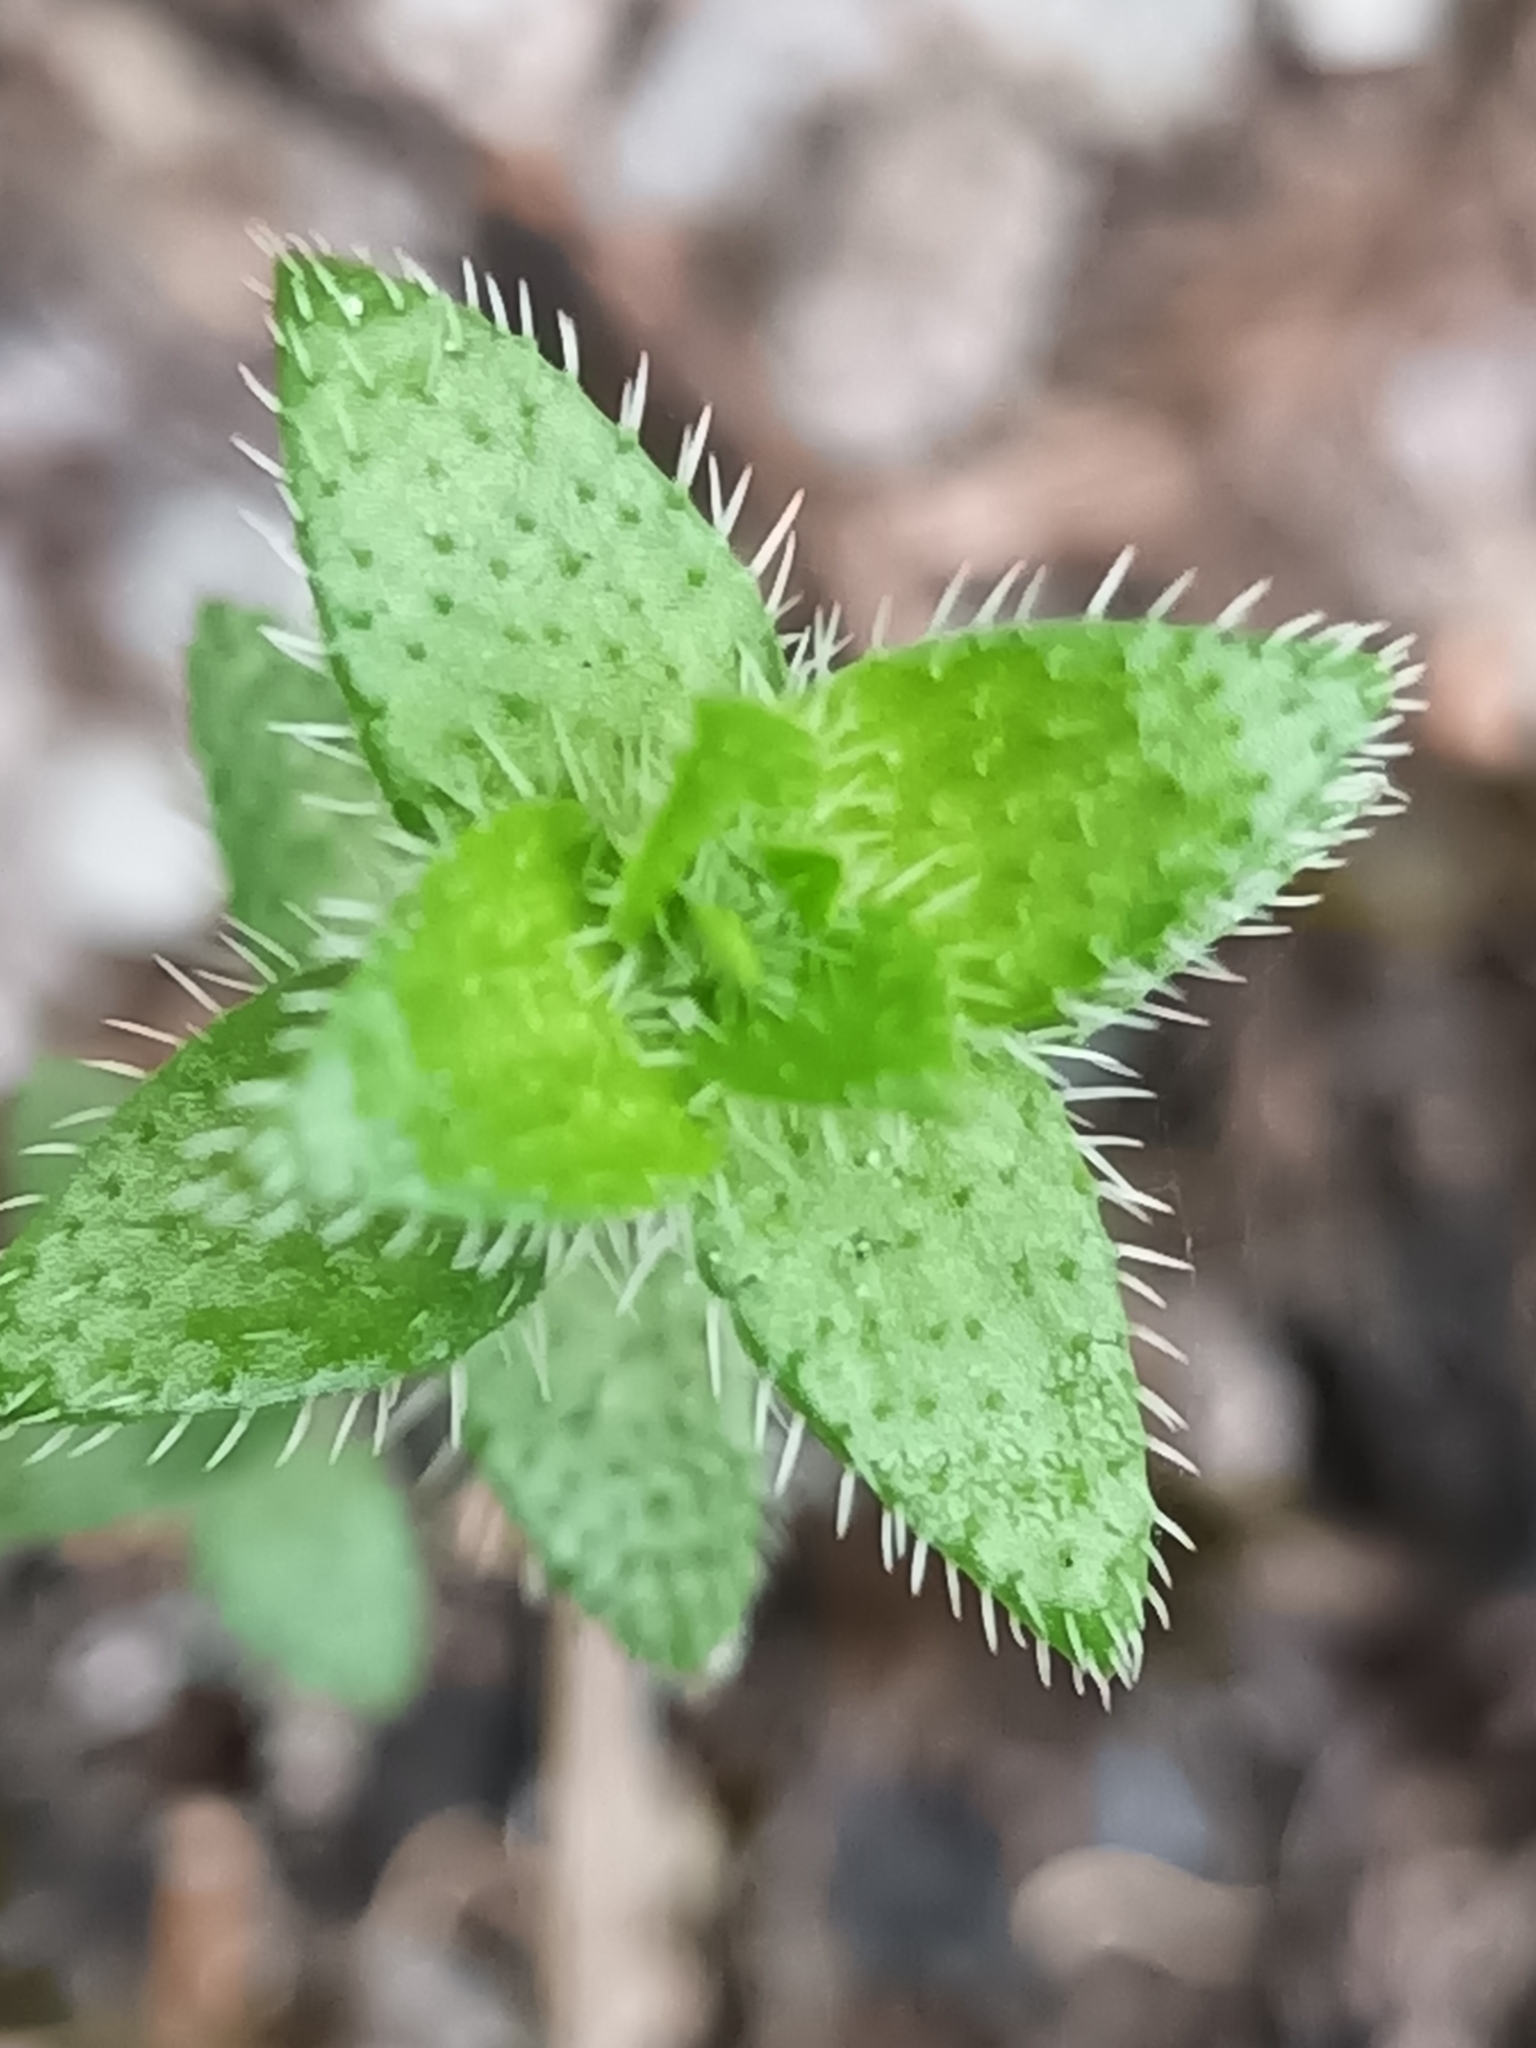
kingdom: Plantae
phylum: Tracheophyta
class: Magnoliopsida
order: Gentianales
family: Rubiaceae
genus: Perama
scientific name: Perama hirsuta
